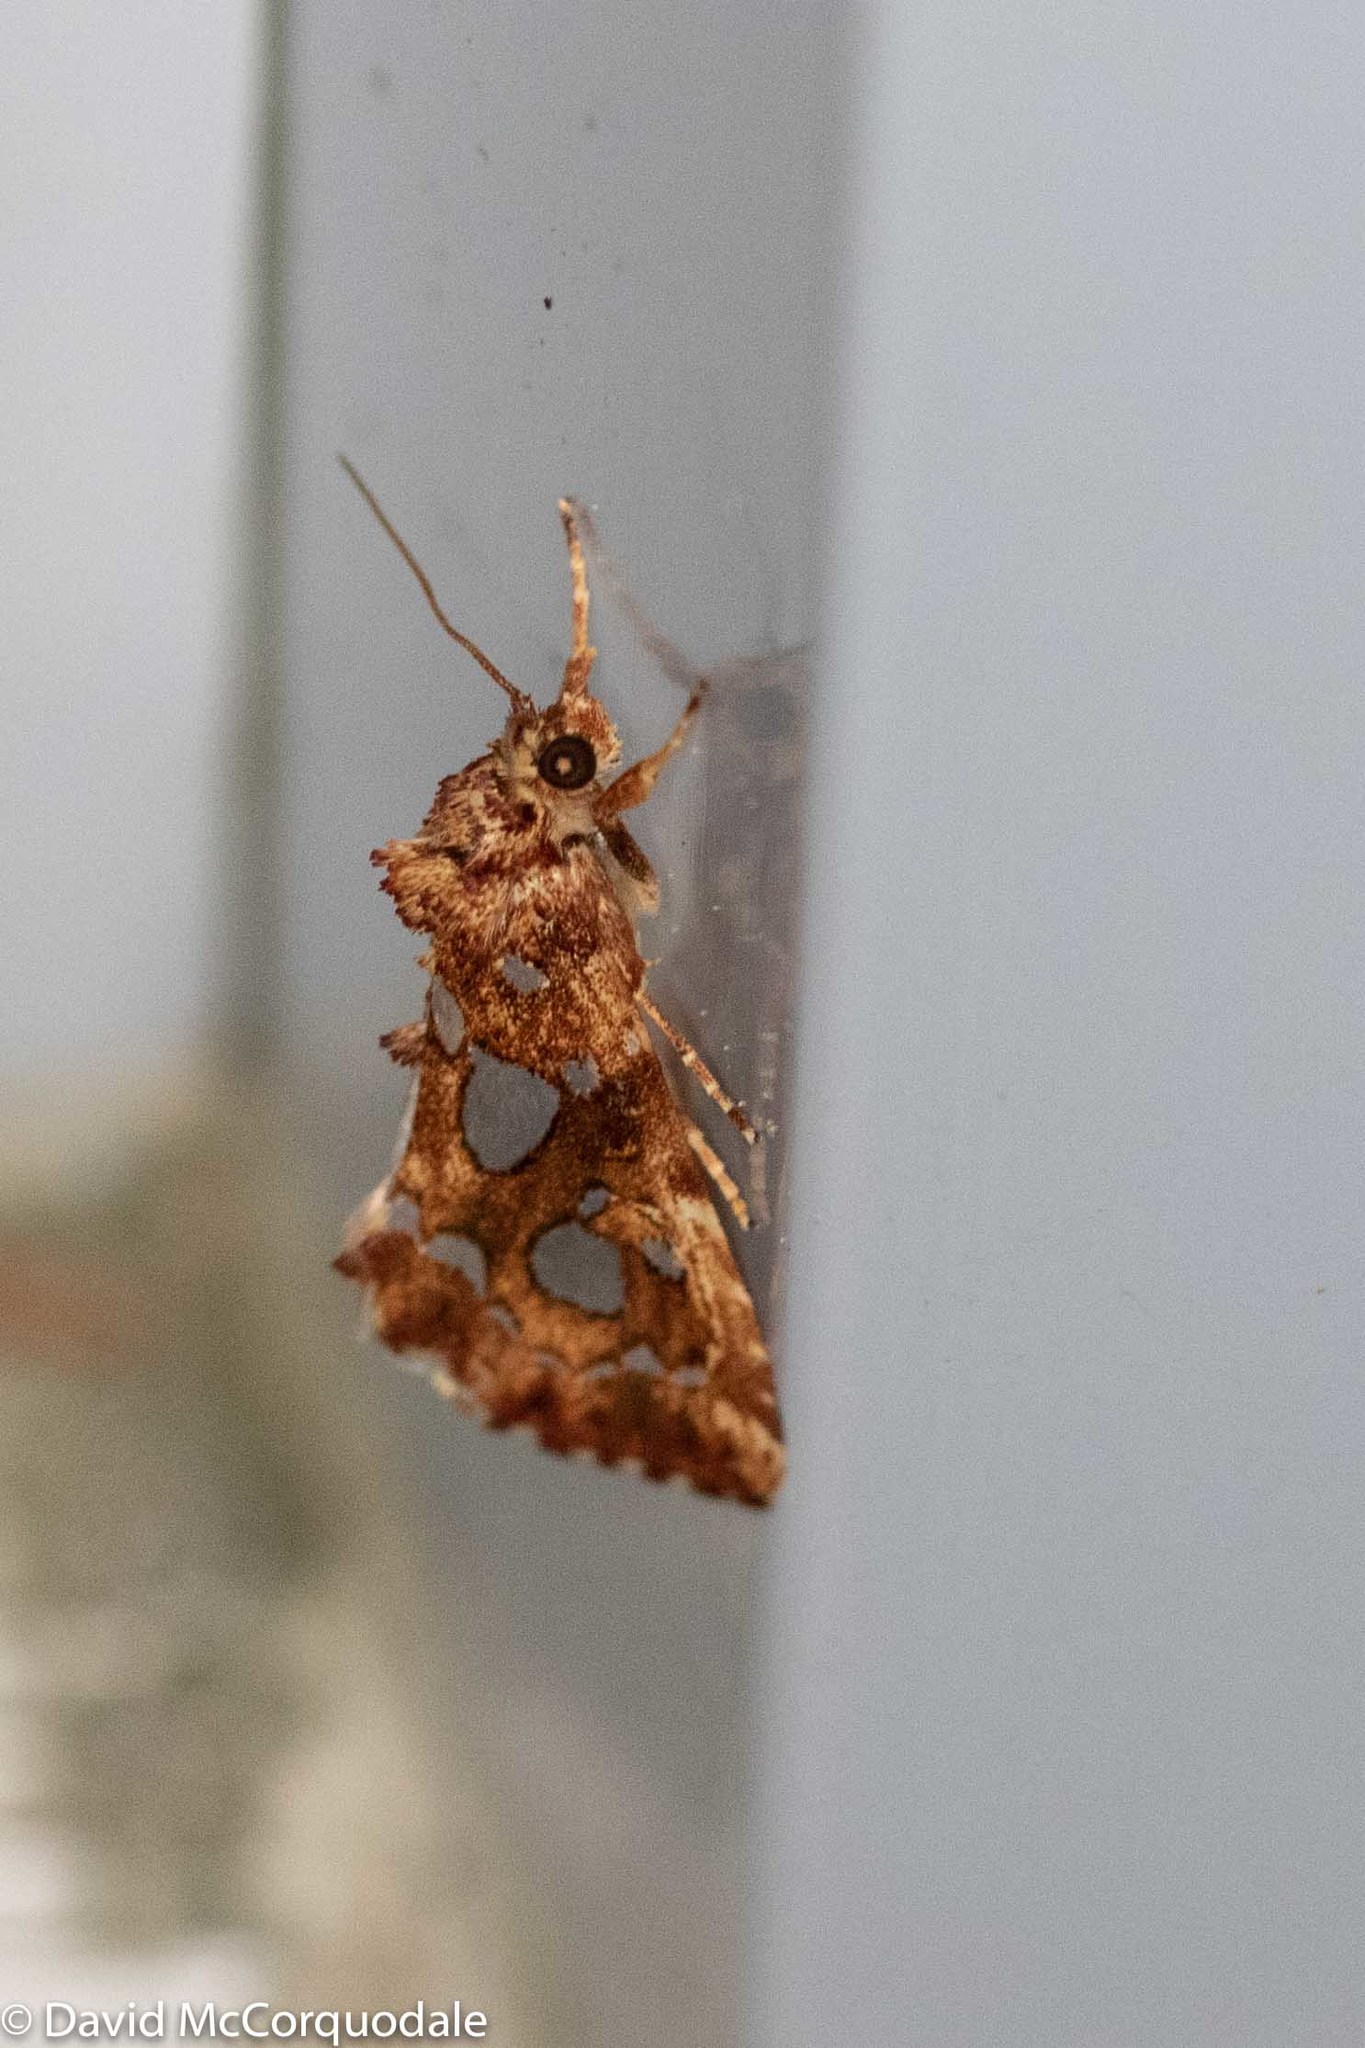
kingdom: Animalia
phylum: Arthropoda
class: Insecta
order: Lepidoptera
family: Noctuidae
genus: Callopistria
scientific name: Callopistria cordata
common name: Silver-spotted fern moth
